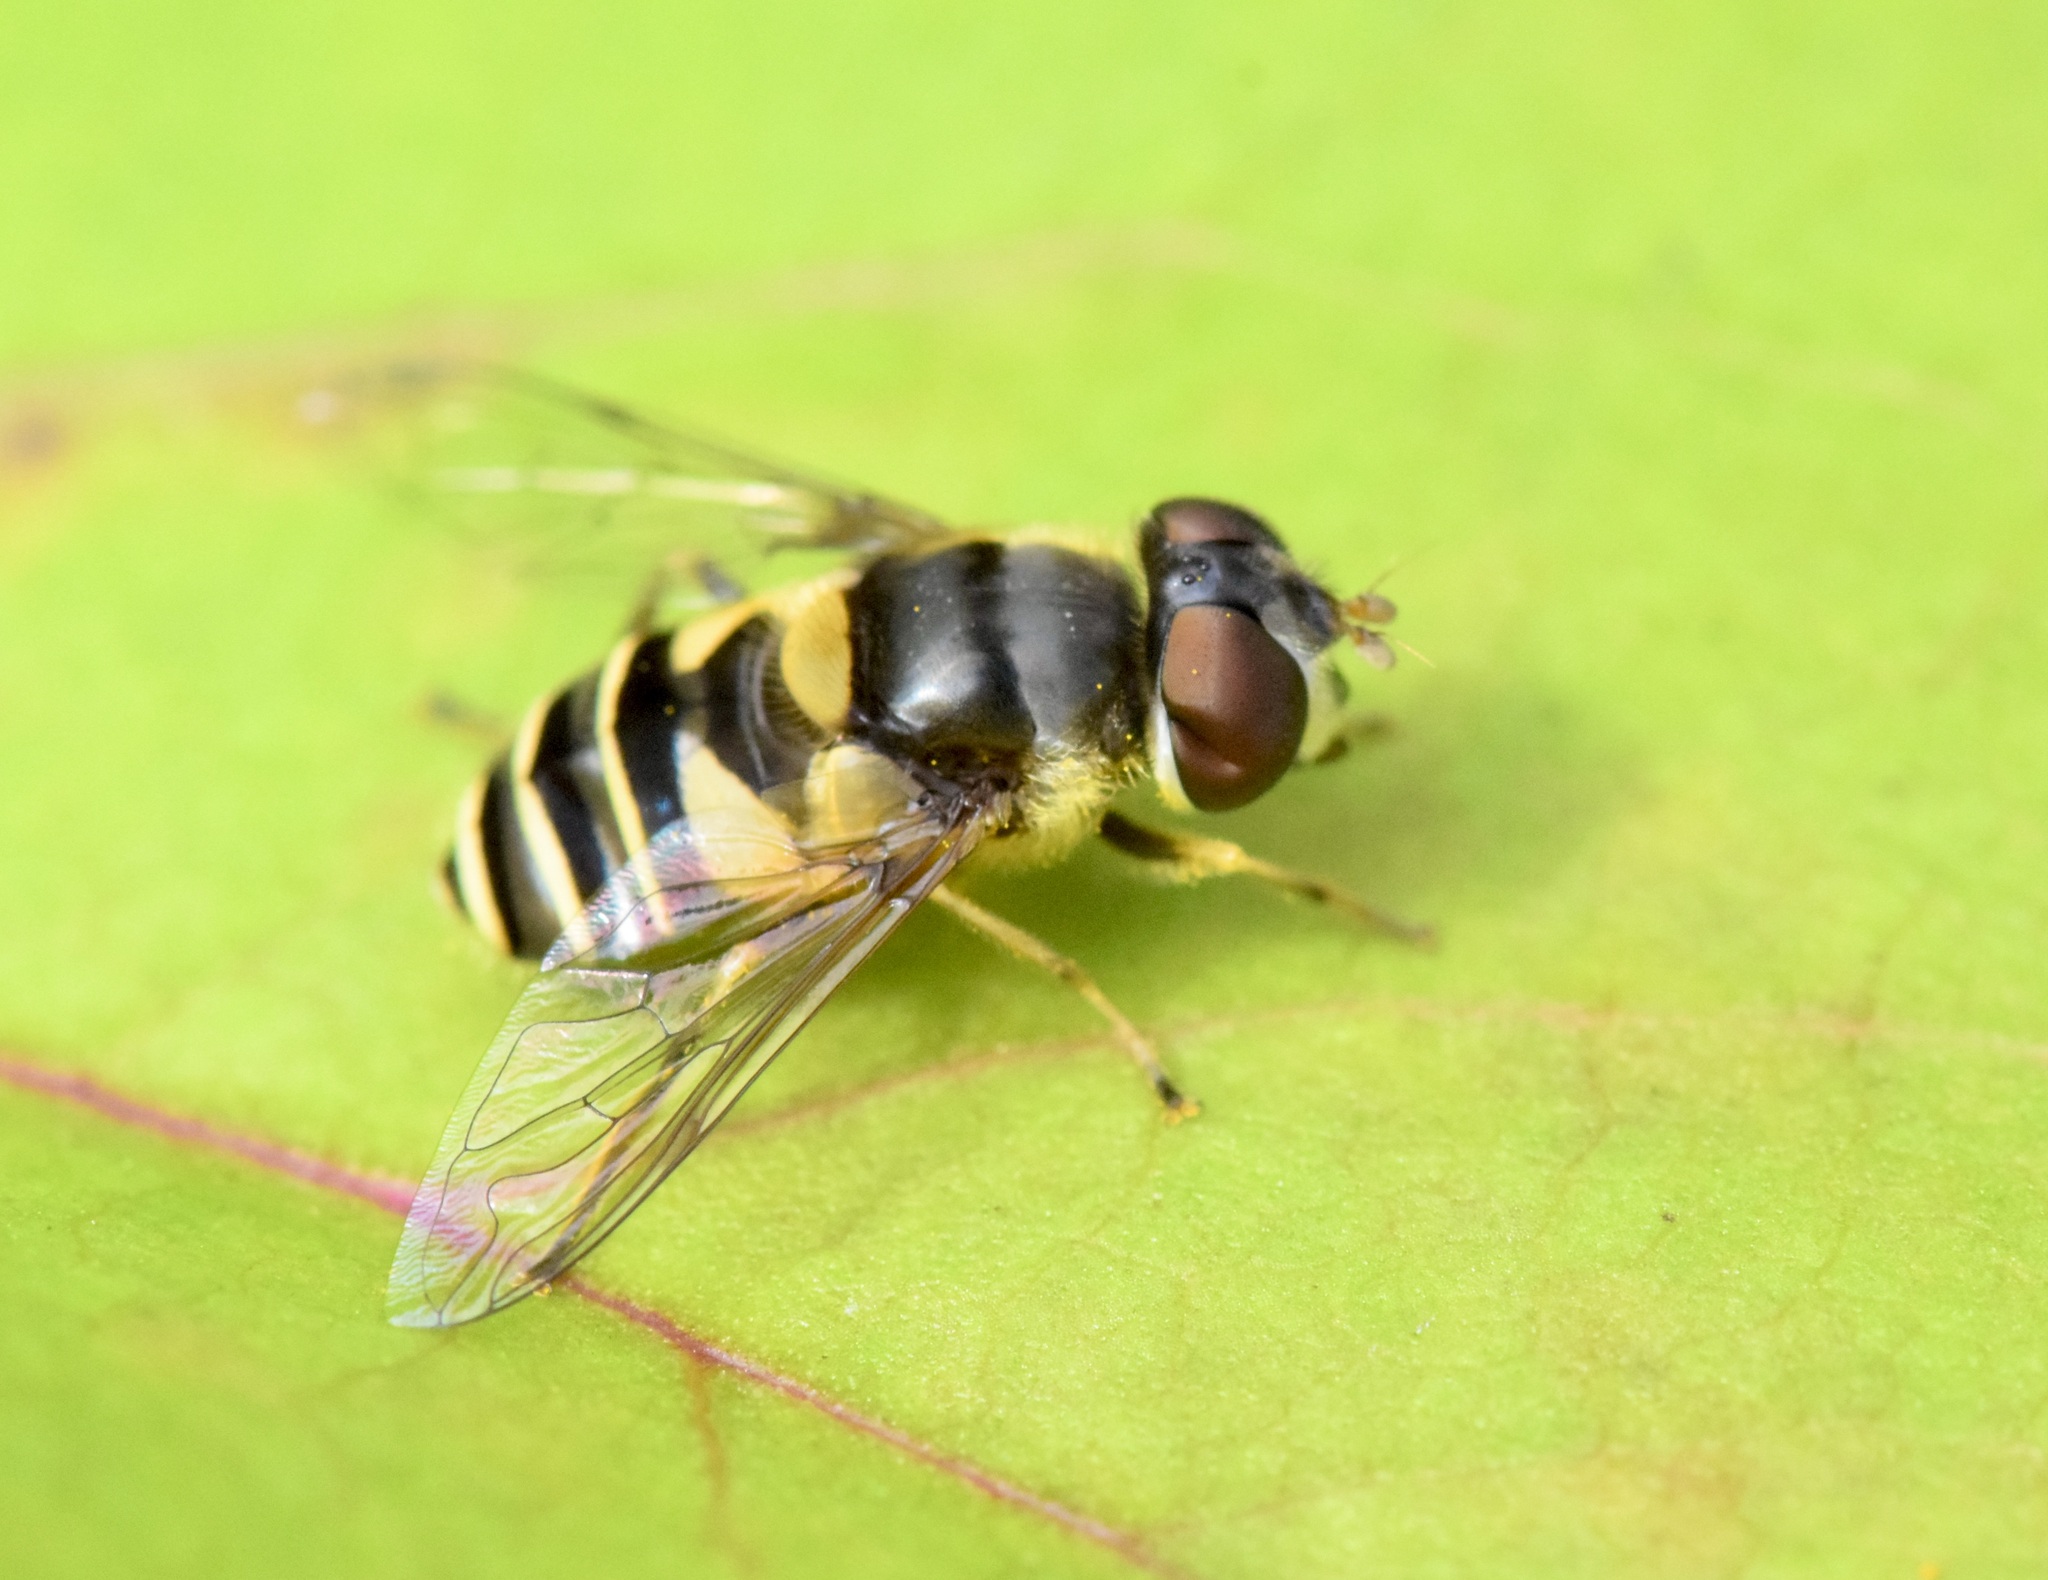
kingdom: Animalia
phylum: Arthropoda
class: Insecta
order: Diptera
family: Syrphidae
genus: Eristalis
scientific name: Eristalis transversa
